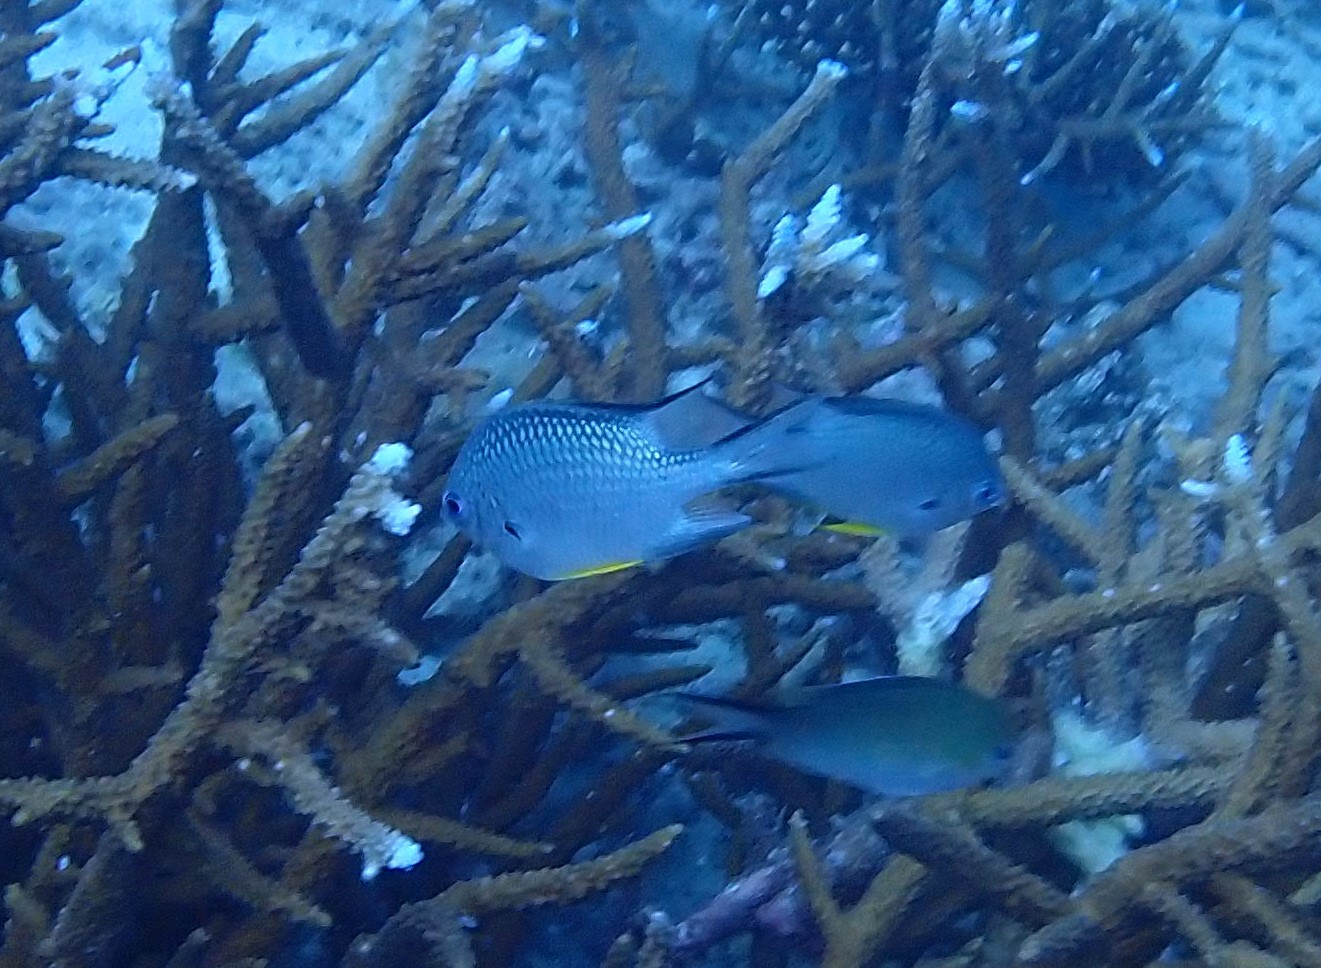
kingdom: Animalia
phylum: Chordata
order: Perciformes
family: Pomacentridae
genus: Amblyglyphidodon
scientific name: Amblyglyphidodon leucogaster
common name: White-belly damsel
